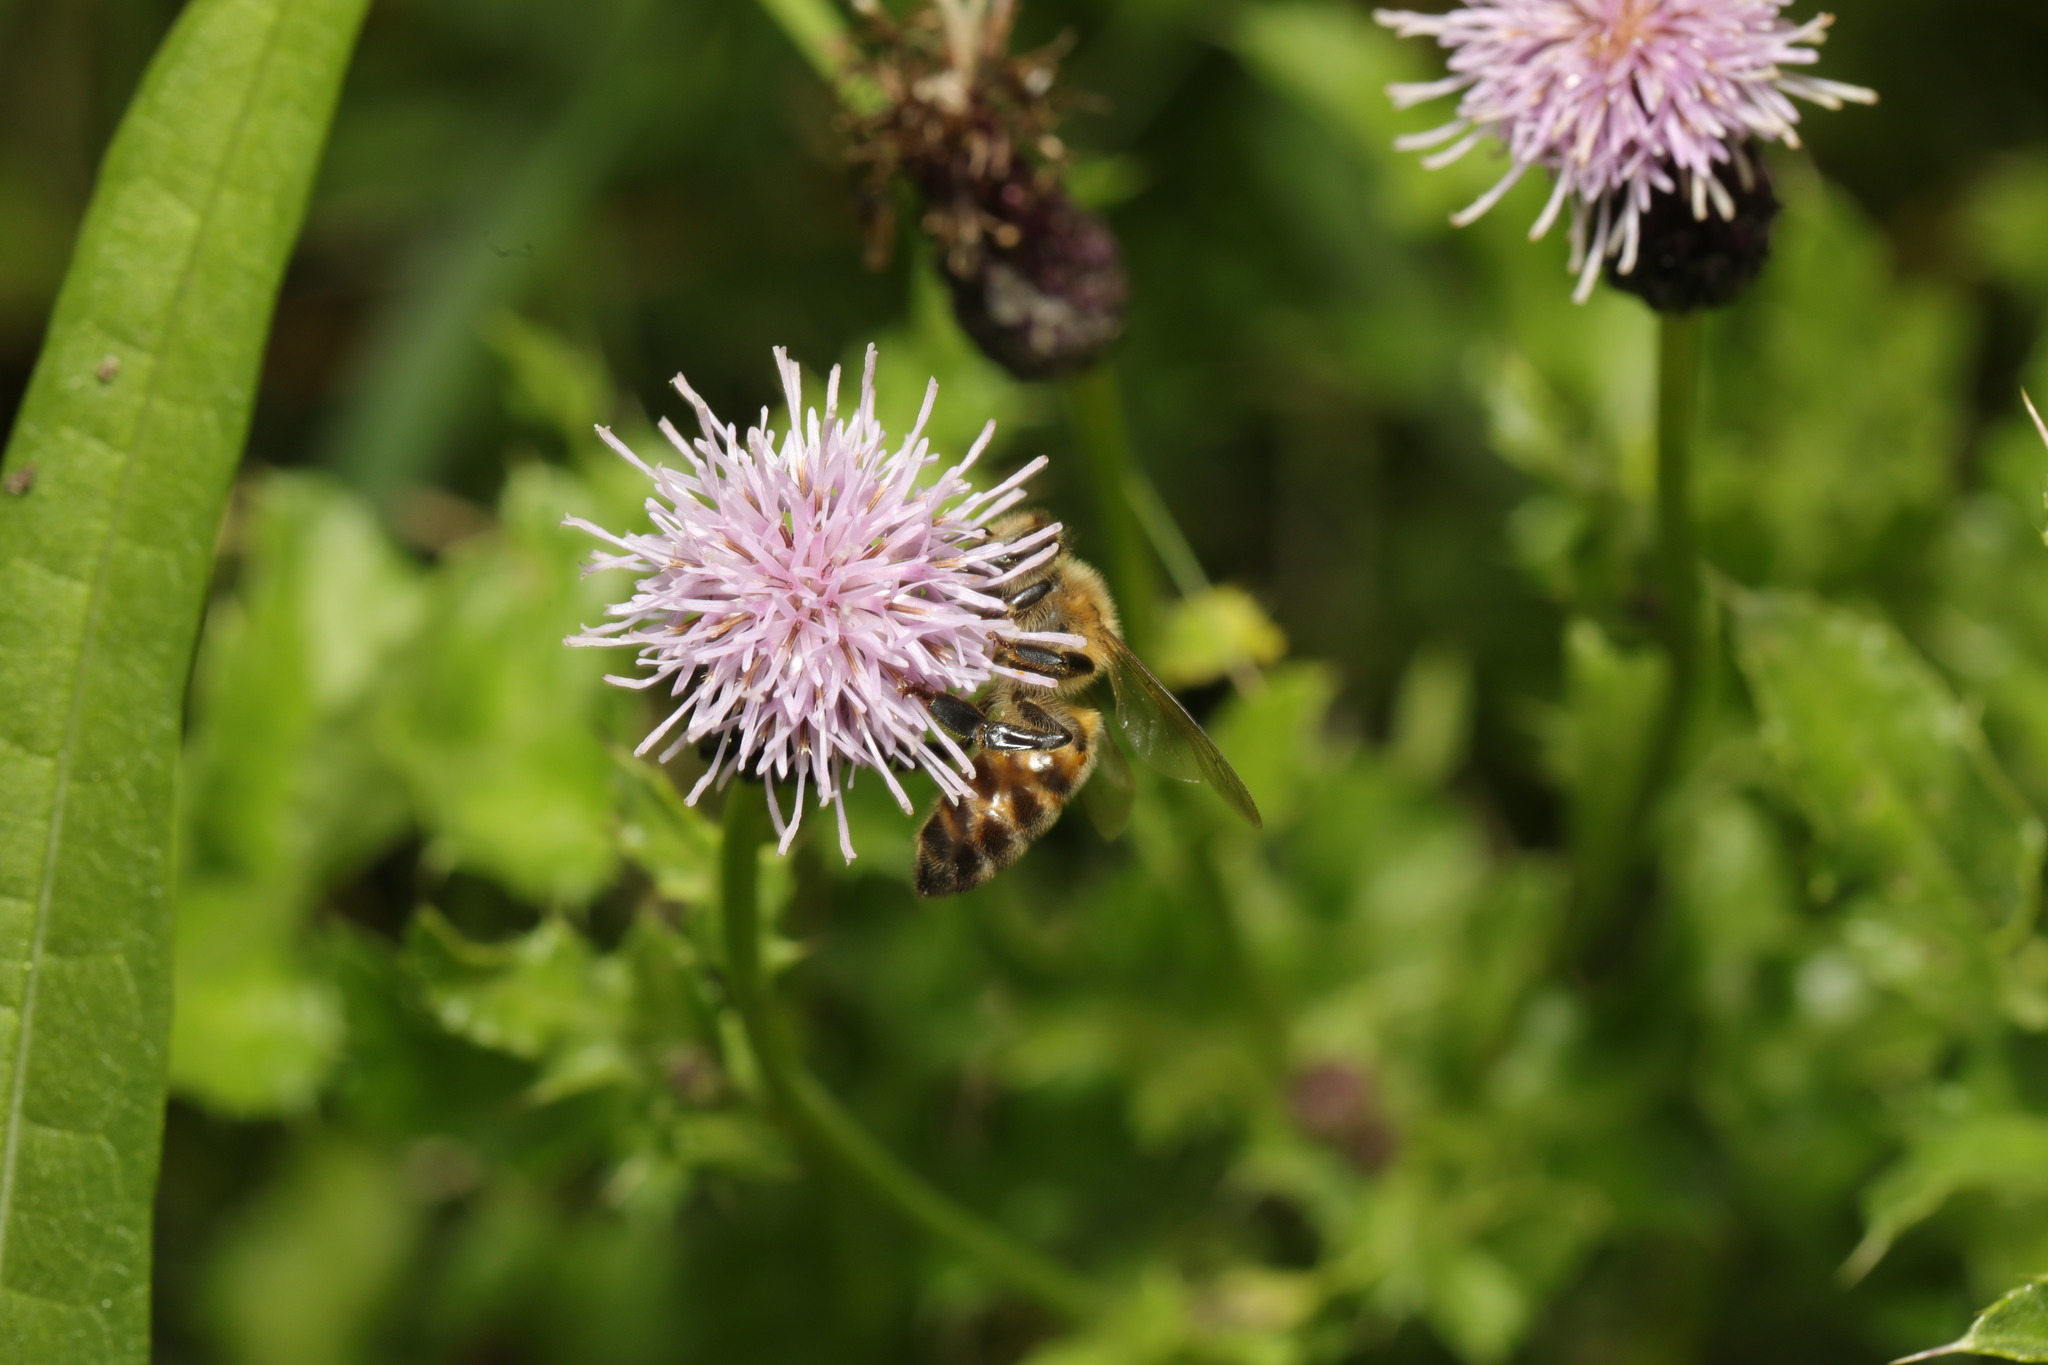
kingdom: Animalia
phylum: Arthropoda
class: Insecta
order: Hymenoptera
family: Apidae
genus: Apis
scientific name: Apis mellifera
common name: Honey bee
